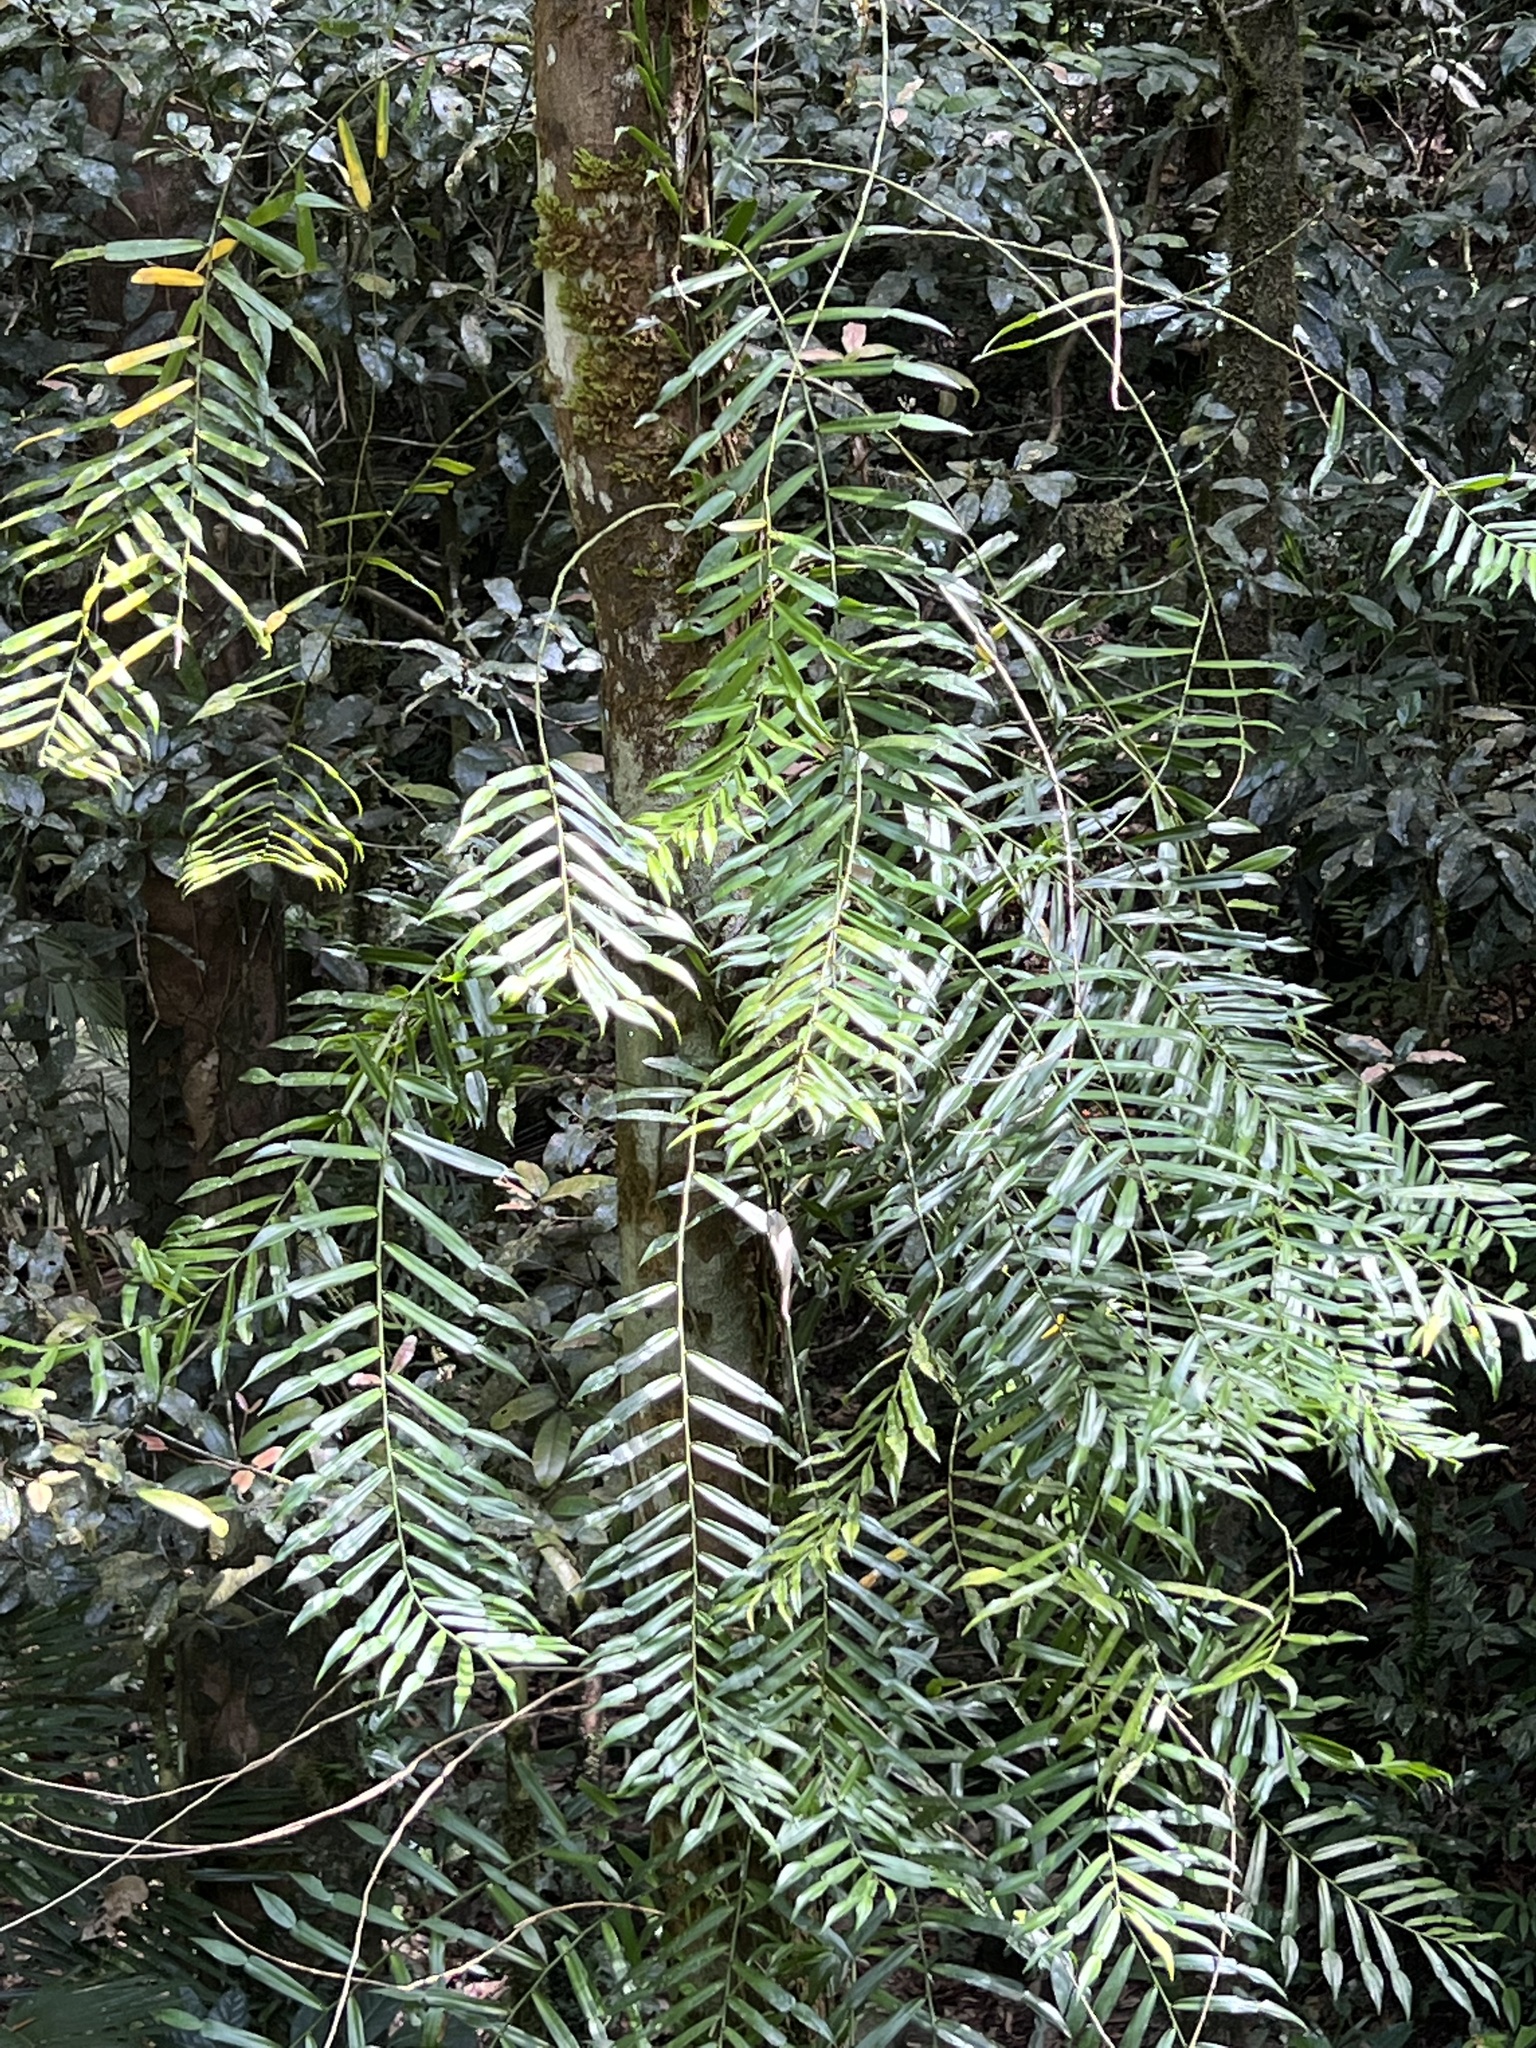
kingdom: Plantae
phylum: Tracheophyta
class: Liliopsida
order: Alismatales
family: Araceae
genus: Pothos
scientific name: Pothos longipes
